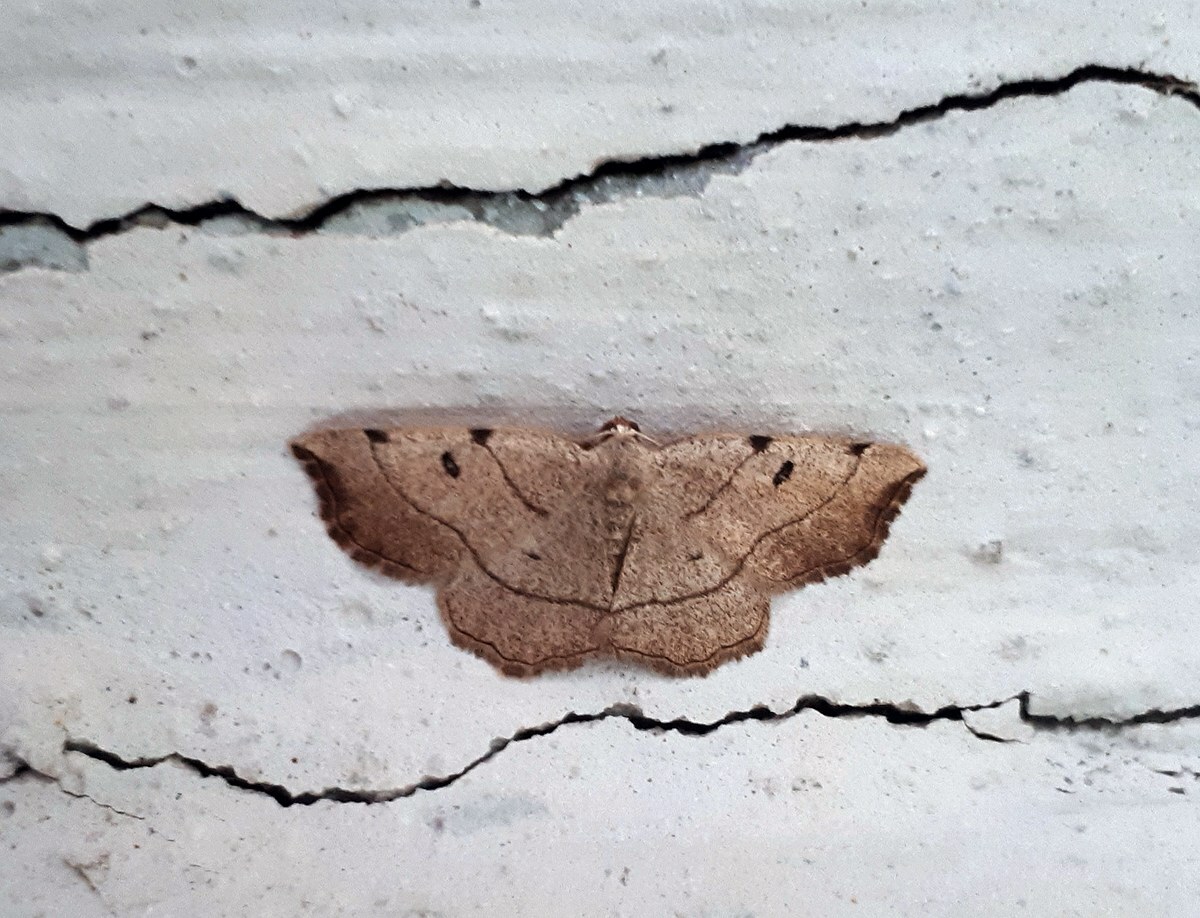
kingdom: Animalia
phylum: Arthropoda
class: Insecta
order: Lepidoptera
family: Geometridae
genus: Eilicrinia
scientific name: Eilicrinia trinotata
